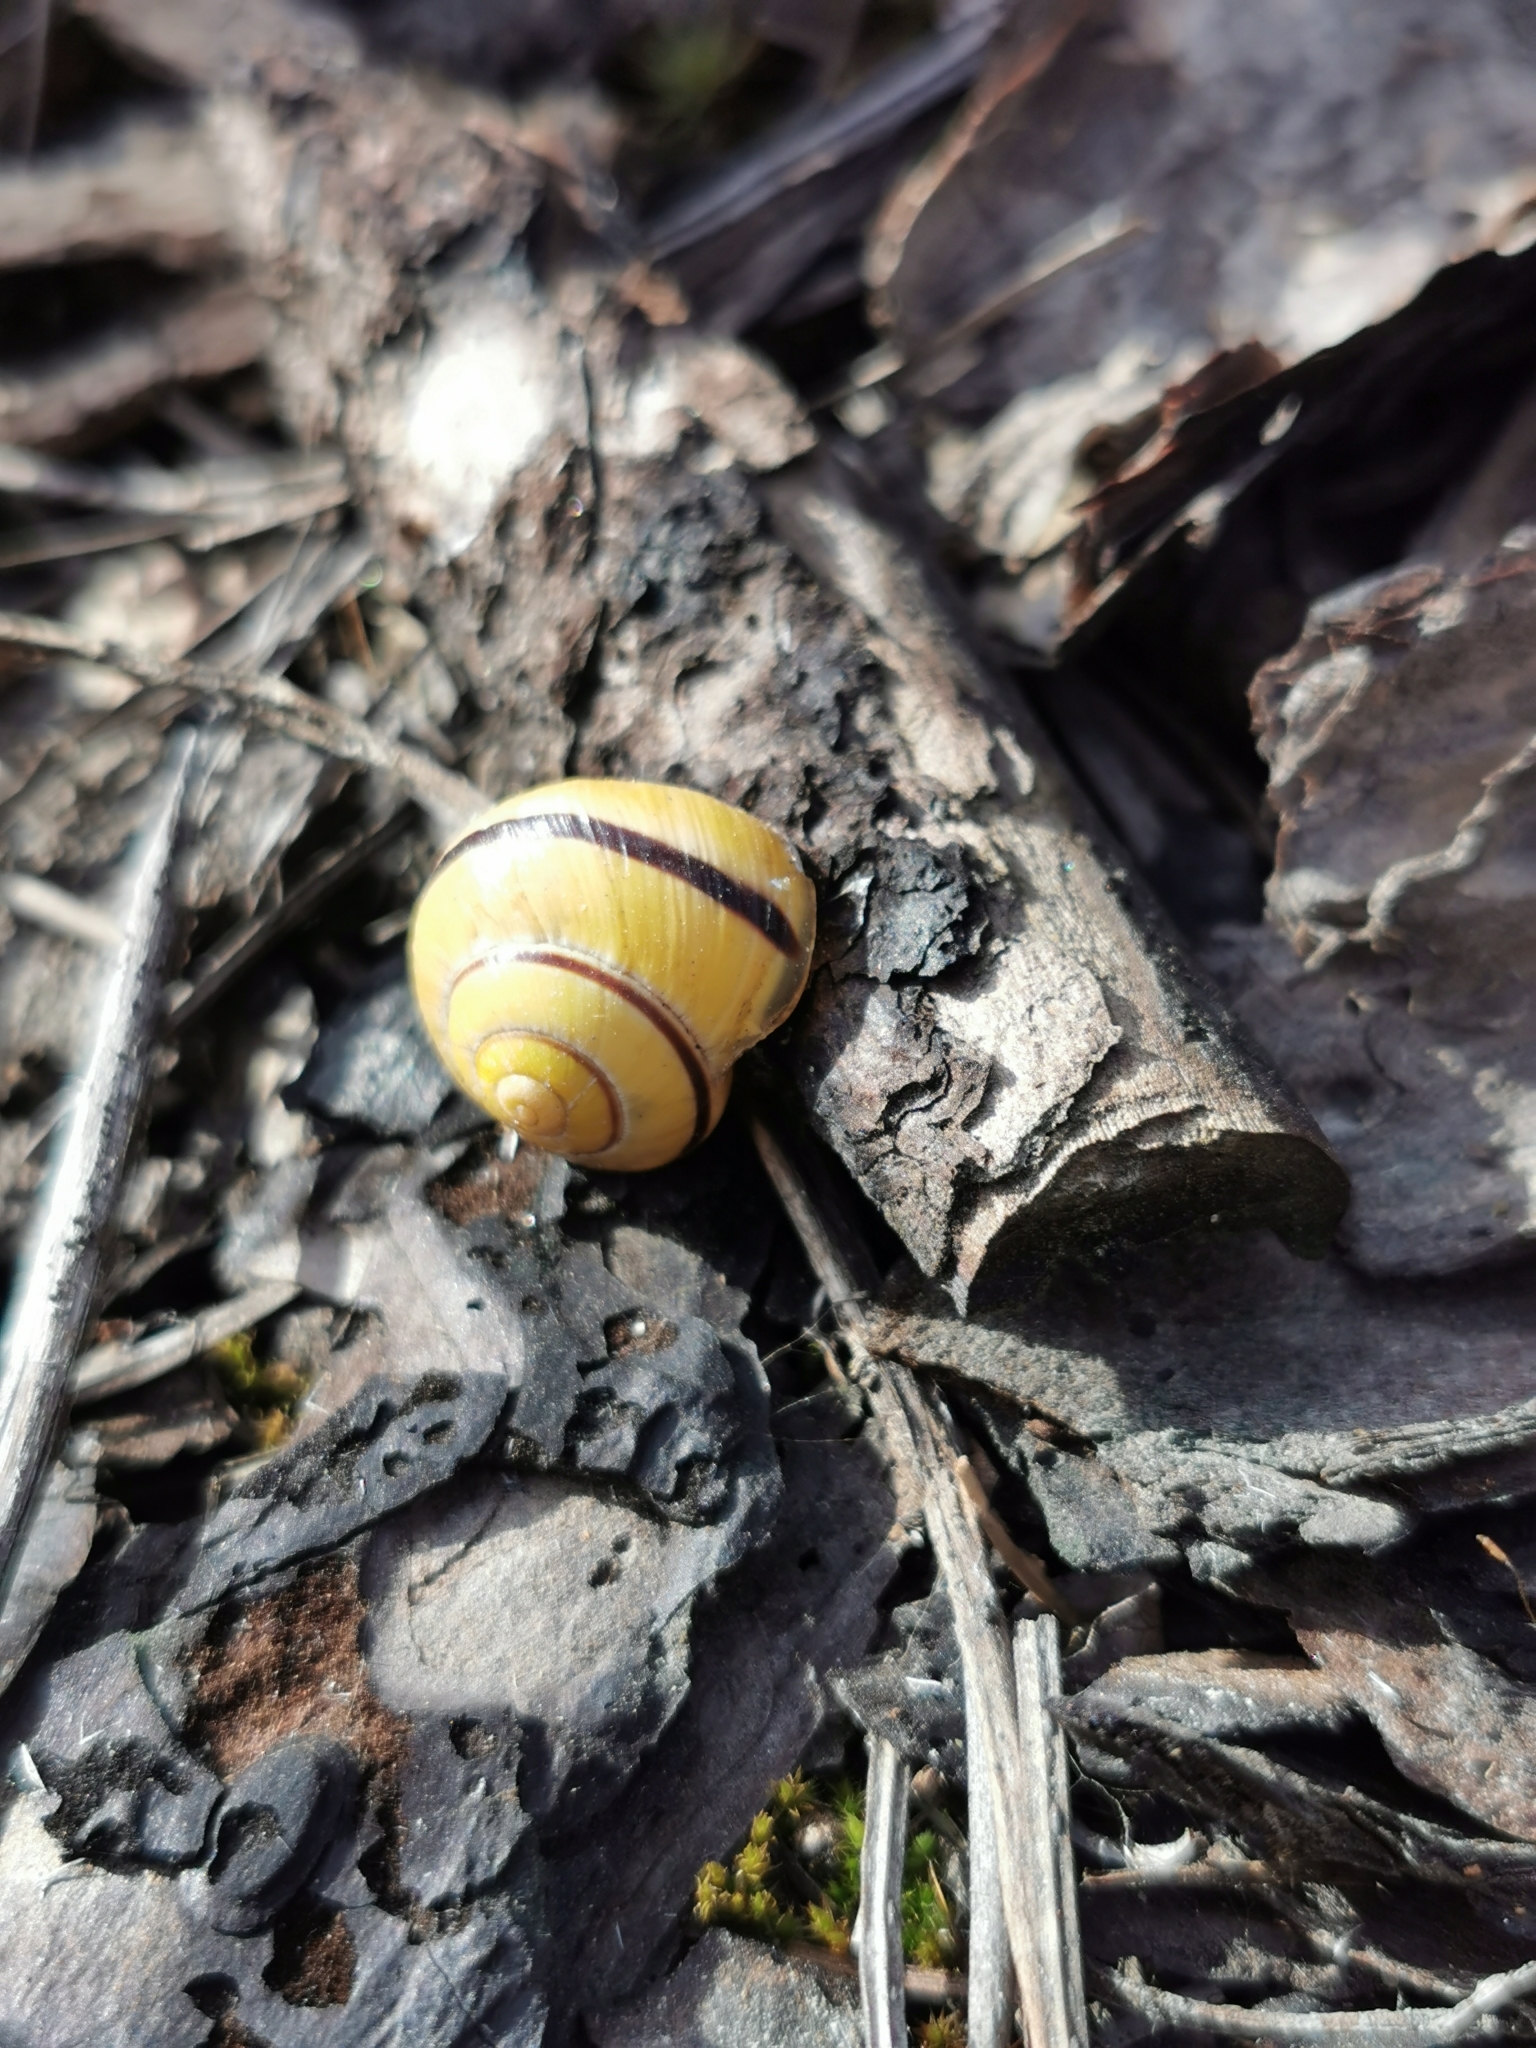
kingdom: Animalia
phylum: Mollusca
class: Gastropoda
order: Stylommatophora
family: Helicidae
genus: Cepaea
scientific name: Cepaea nemoralis
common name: Grovesnail
